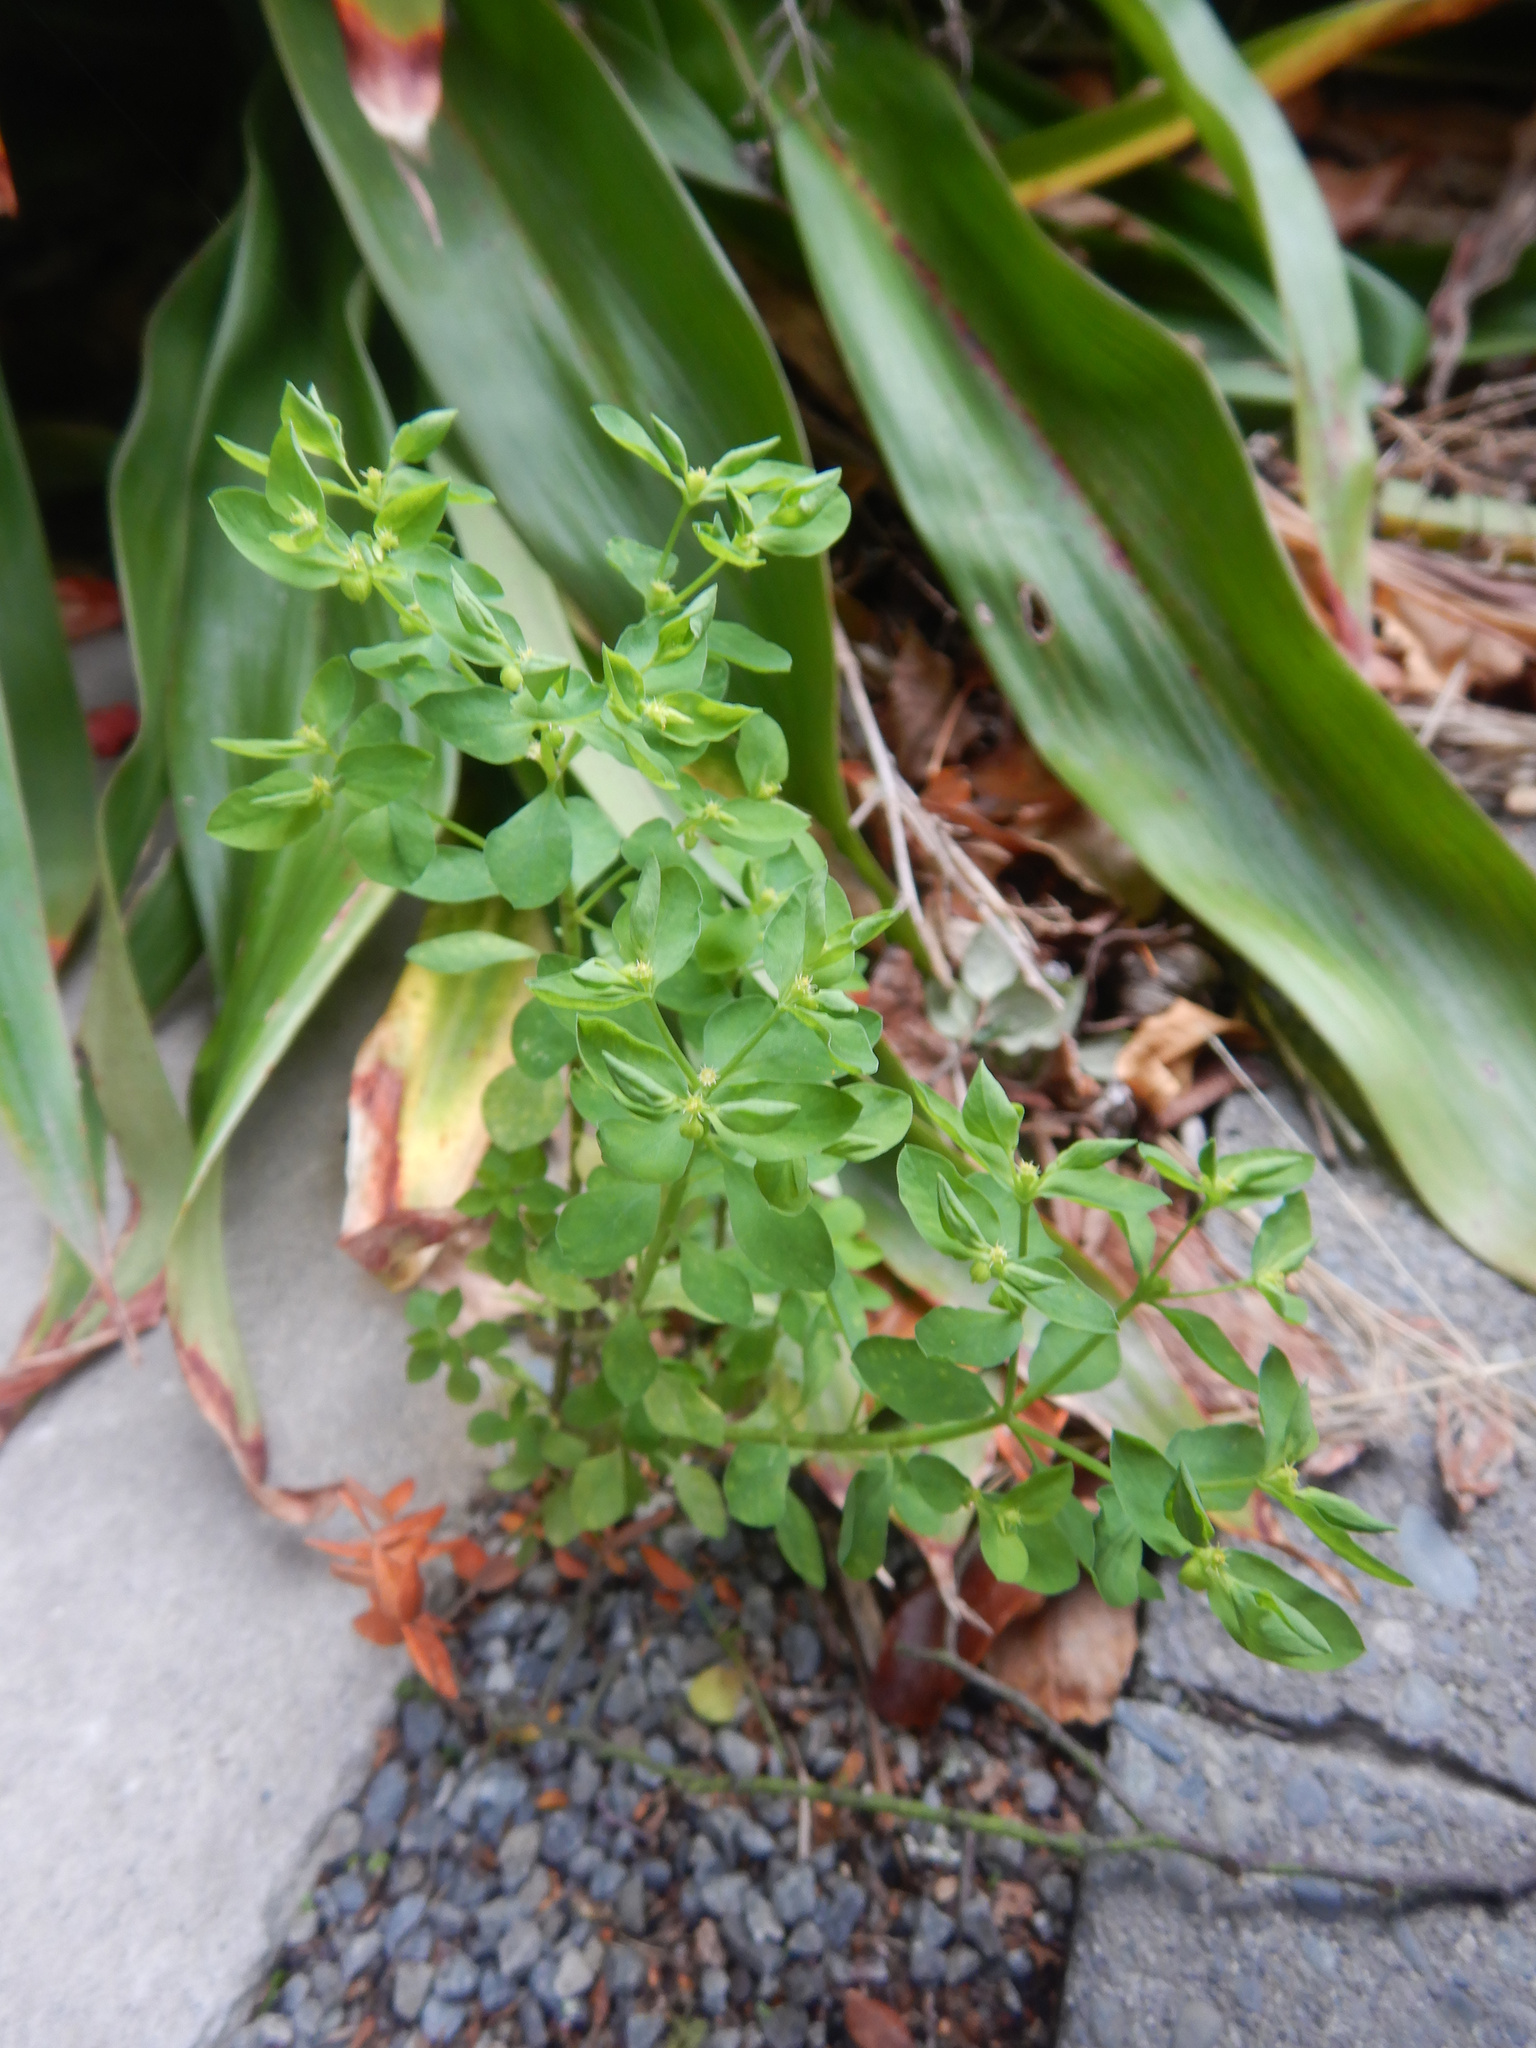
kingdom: Plantae
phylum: Tracheophyta
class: Magnoliopsida
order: Malpighiales
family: Euphorbiaceae
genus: Euphorbia
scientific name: Euphorbia peplus
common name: Petty spurge
